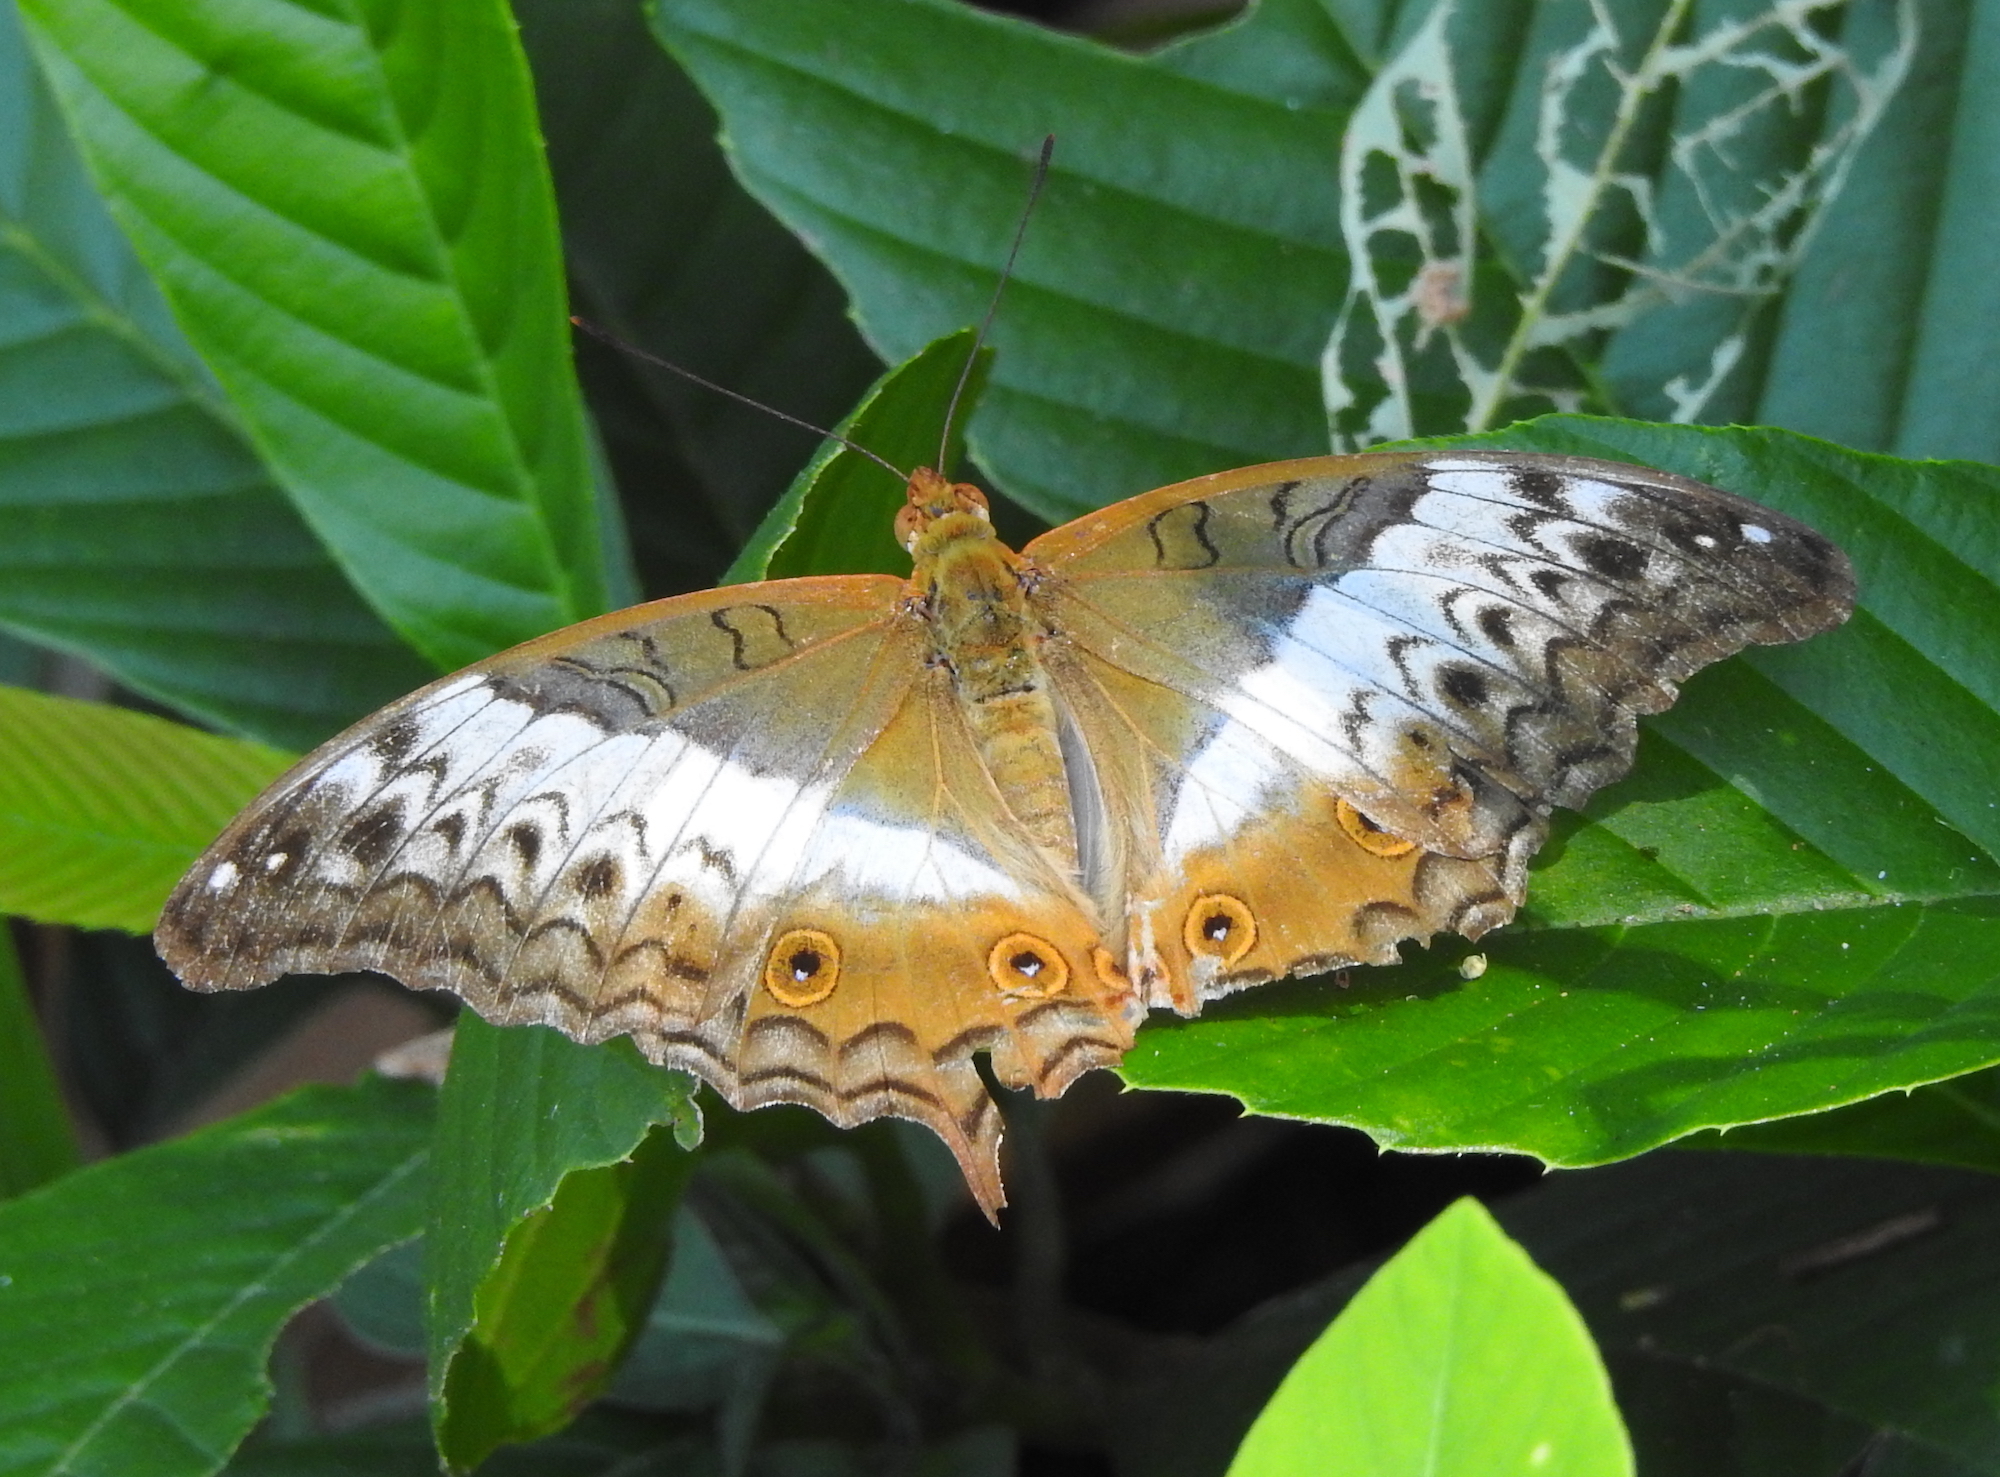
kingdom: Animalia
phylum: Arthropoda
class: Insecta
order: Lepidoptera
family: Nymphalidae
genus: Vindula
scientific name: Vindula deione
